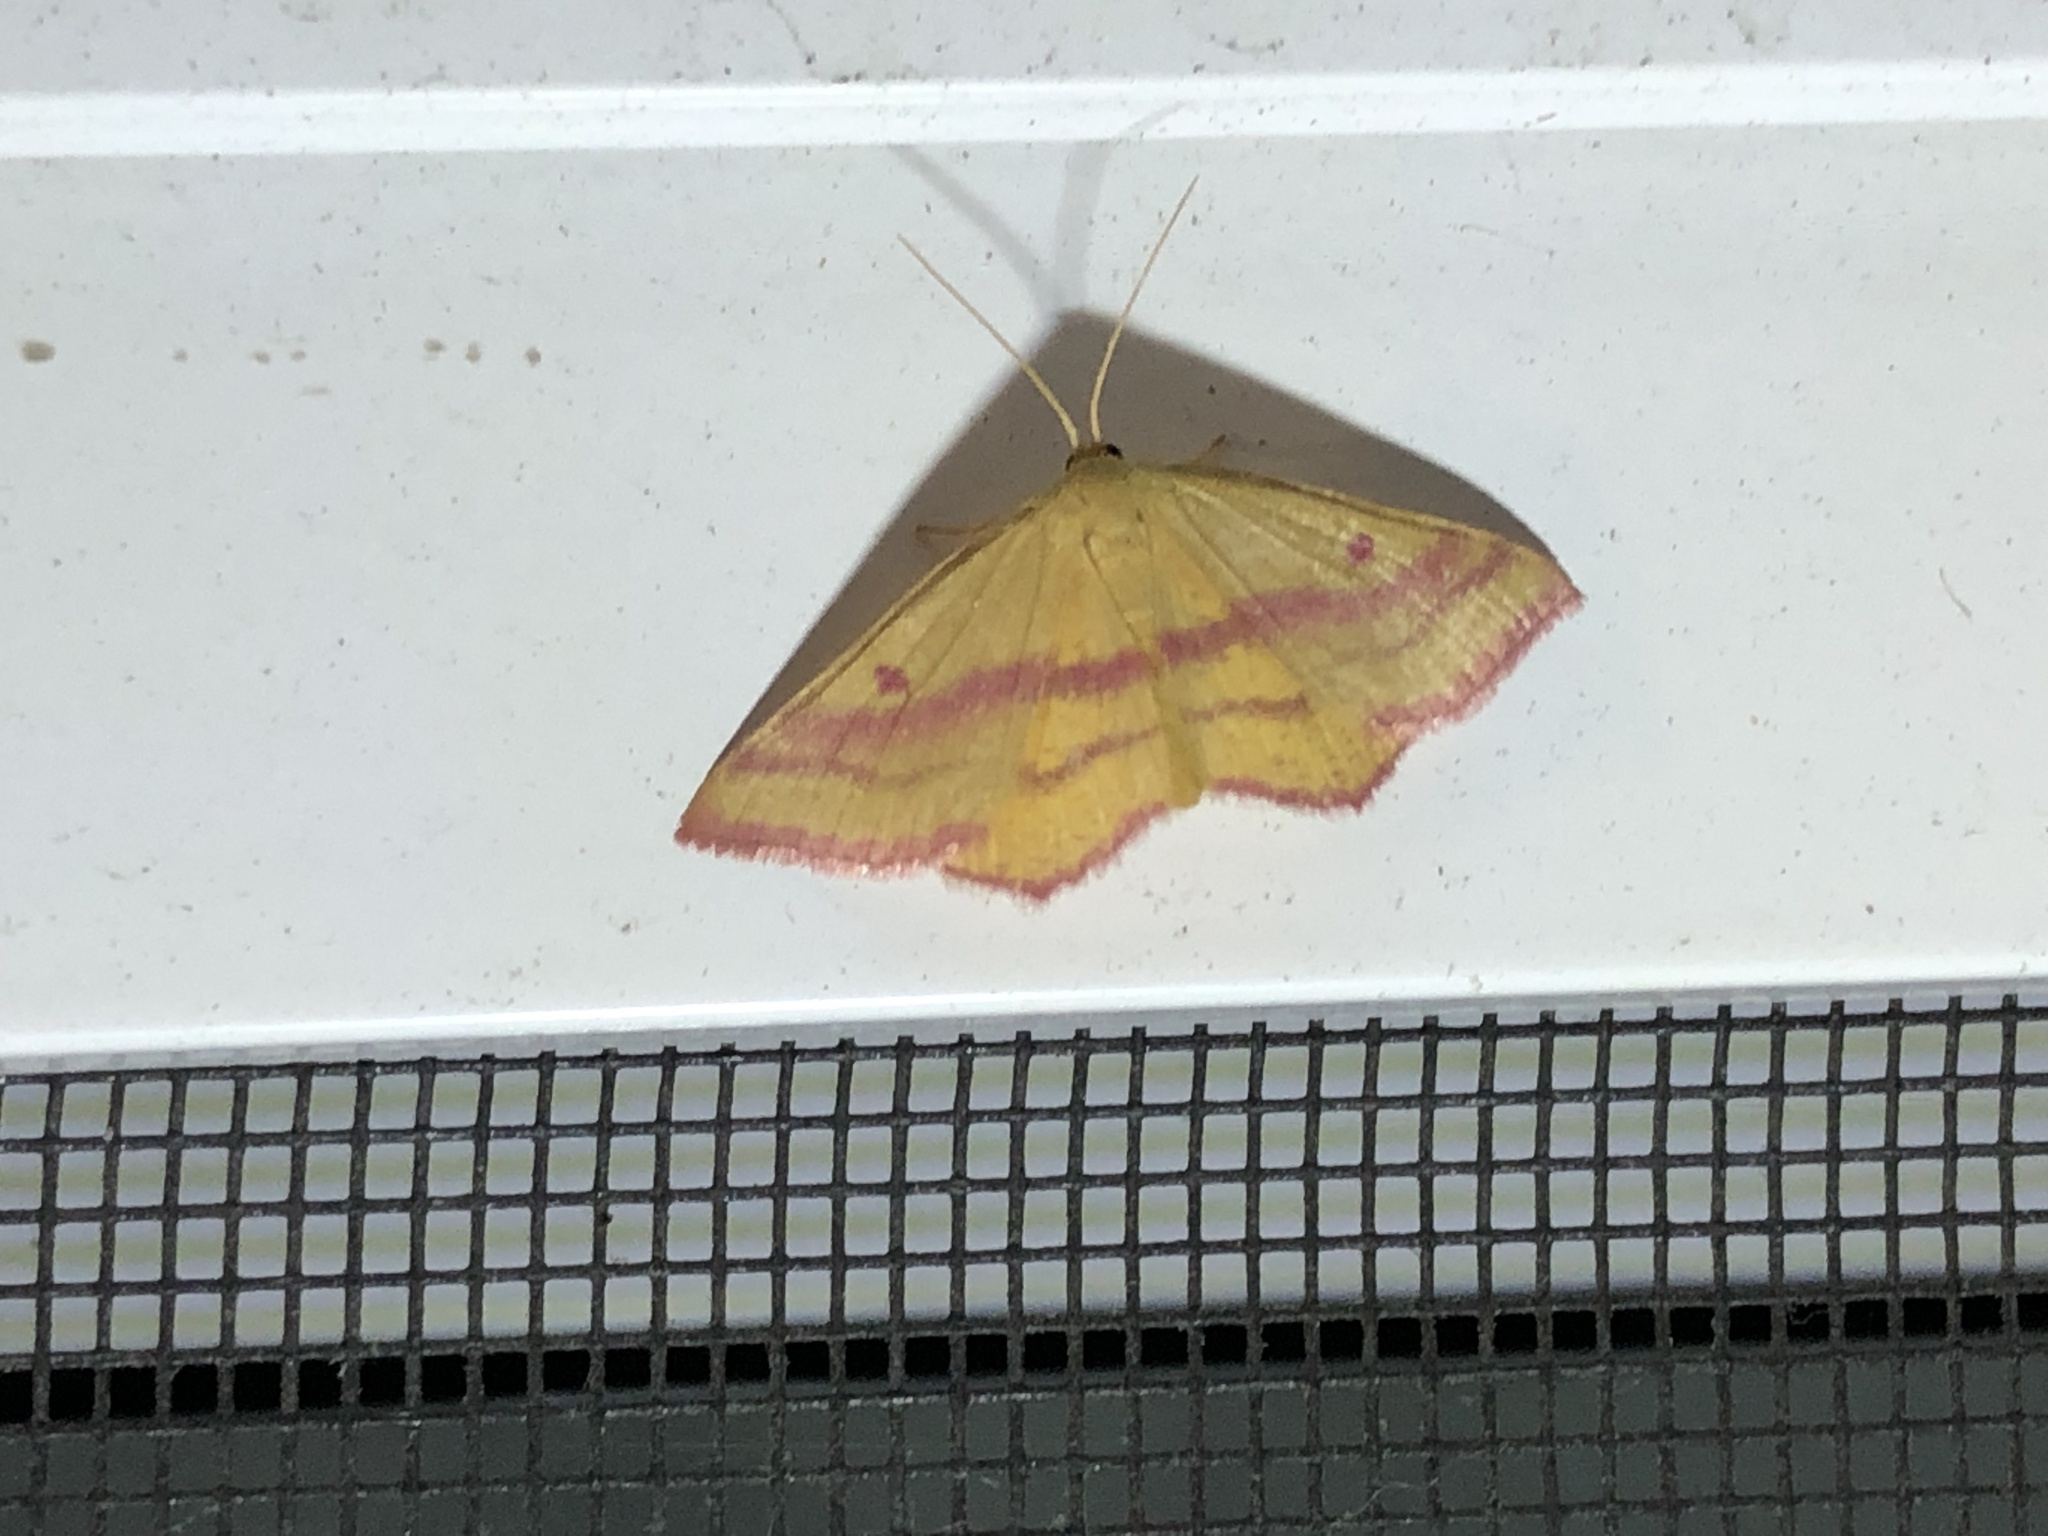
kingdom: Animalia
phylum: Arthropoda
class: Insecta
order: Lepidoptera
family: Geometridae
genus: Haematopis
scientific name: Haematopis grataria
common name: Chickweed geometer
